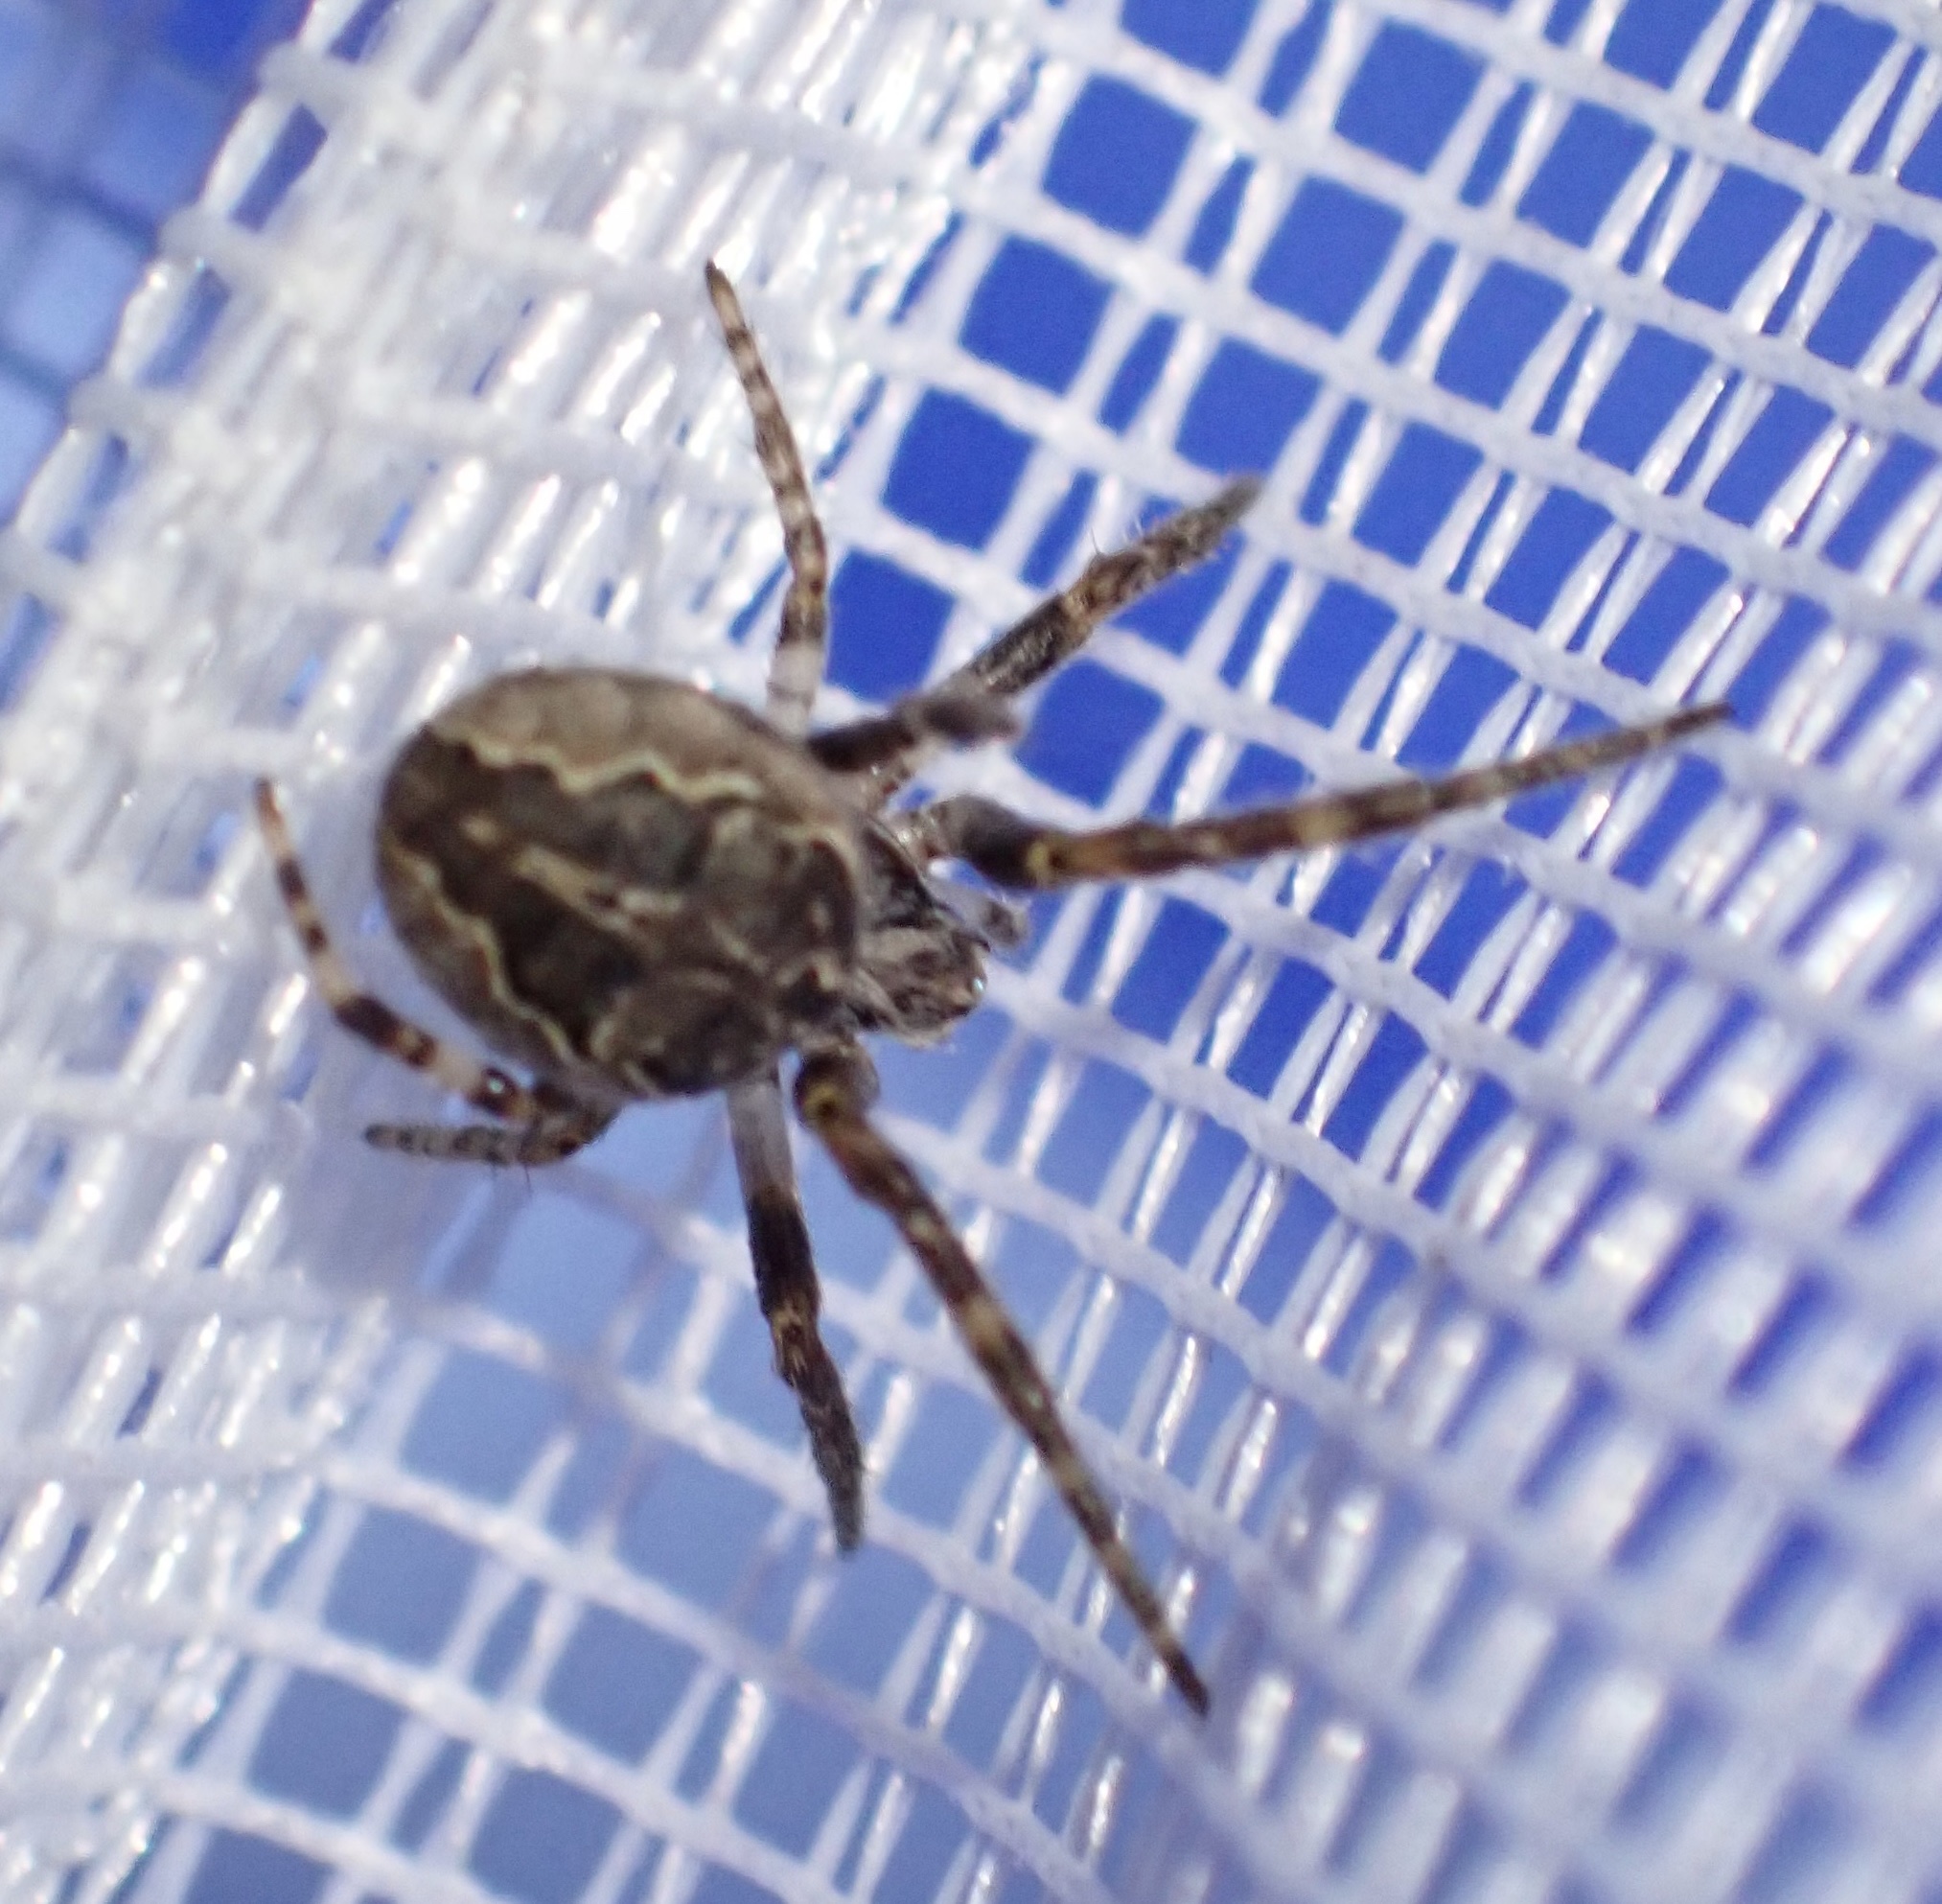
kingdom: Animalia
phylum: Arthropoda
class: Arachnida
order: Araneae
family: Araneidae
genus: Larinioides
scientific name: Larinioides sclopetarius
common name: Bridge orbweaver
